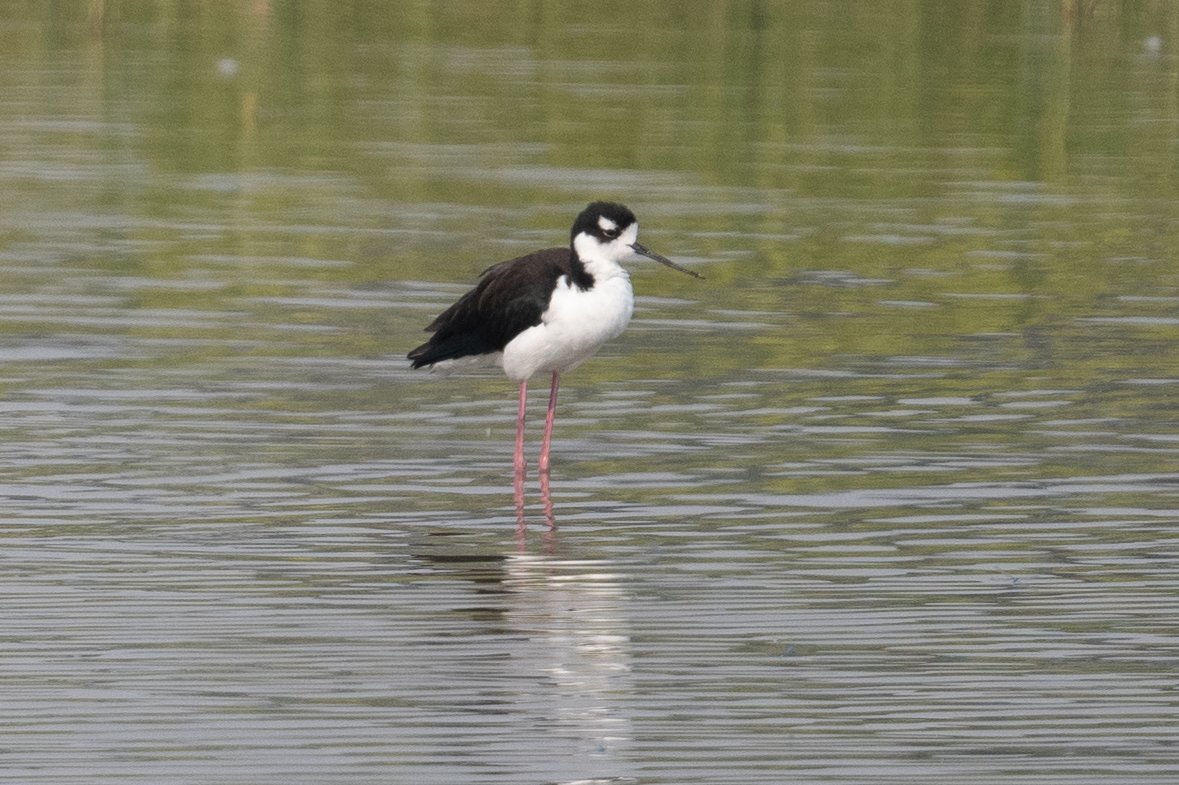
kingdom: Animalia
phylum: Chordata
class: Aves
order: Charadriiformes
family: Recurvirostridae
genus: Himantopus
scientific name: Himantopus mexicanus
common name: Black-necked stilt
